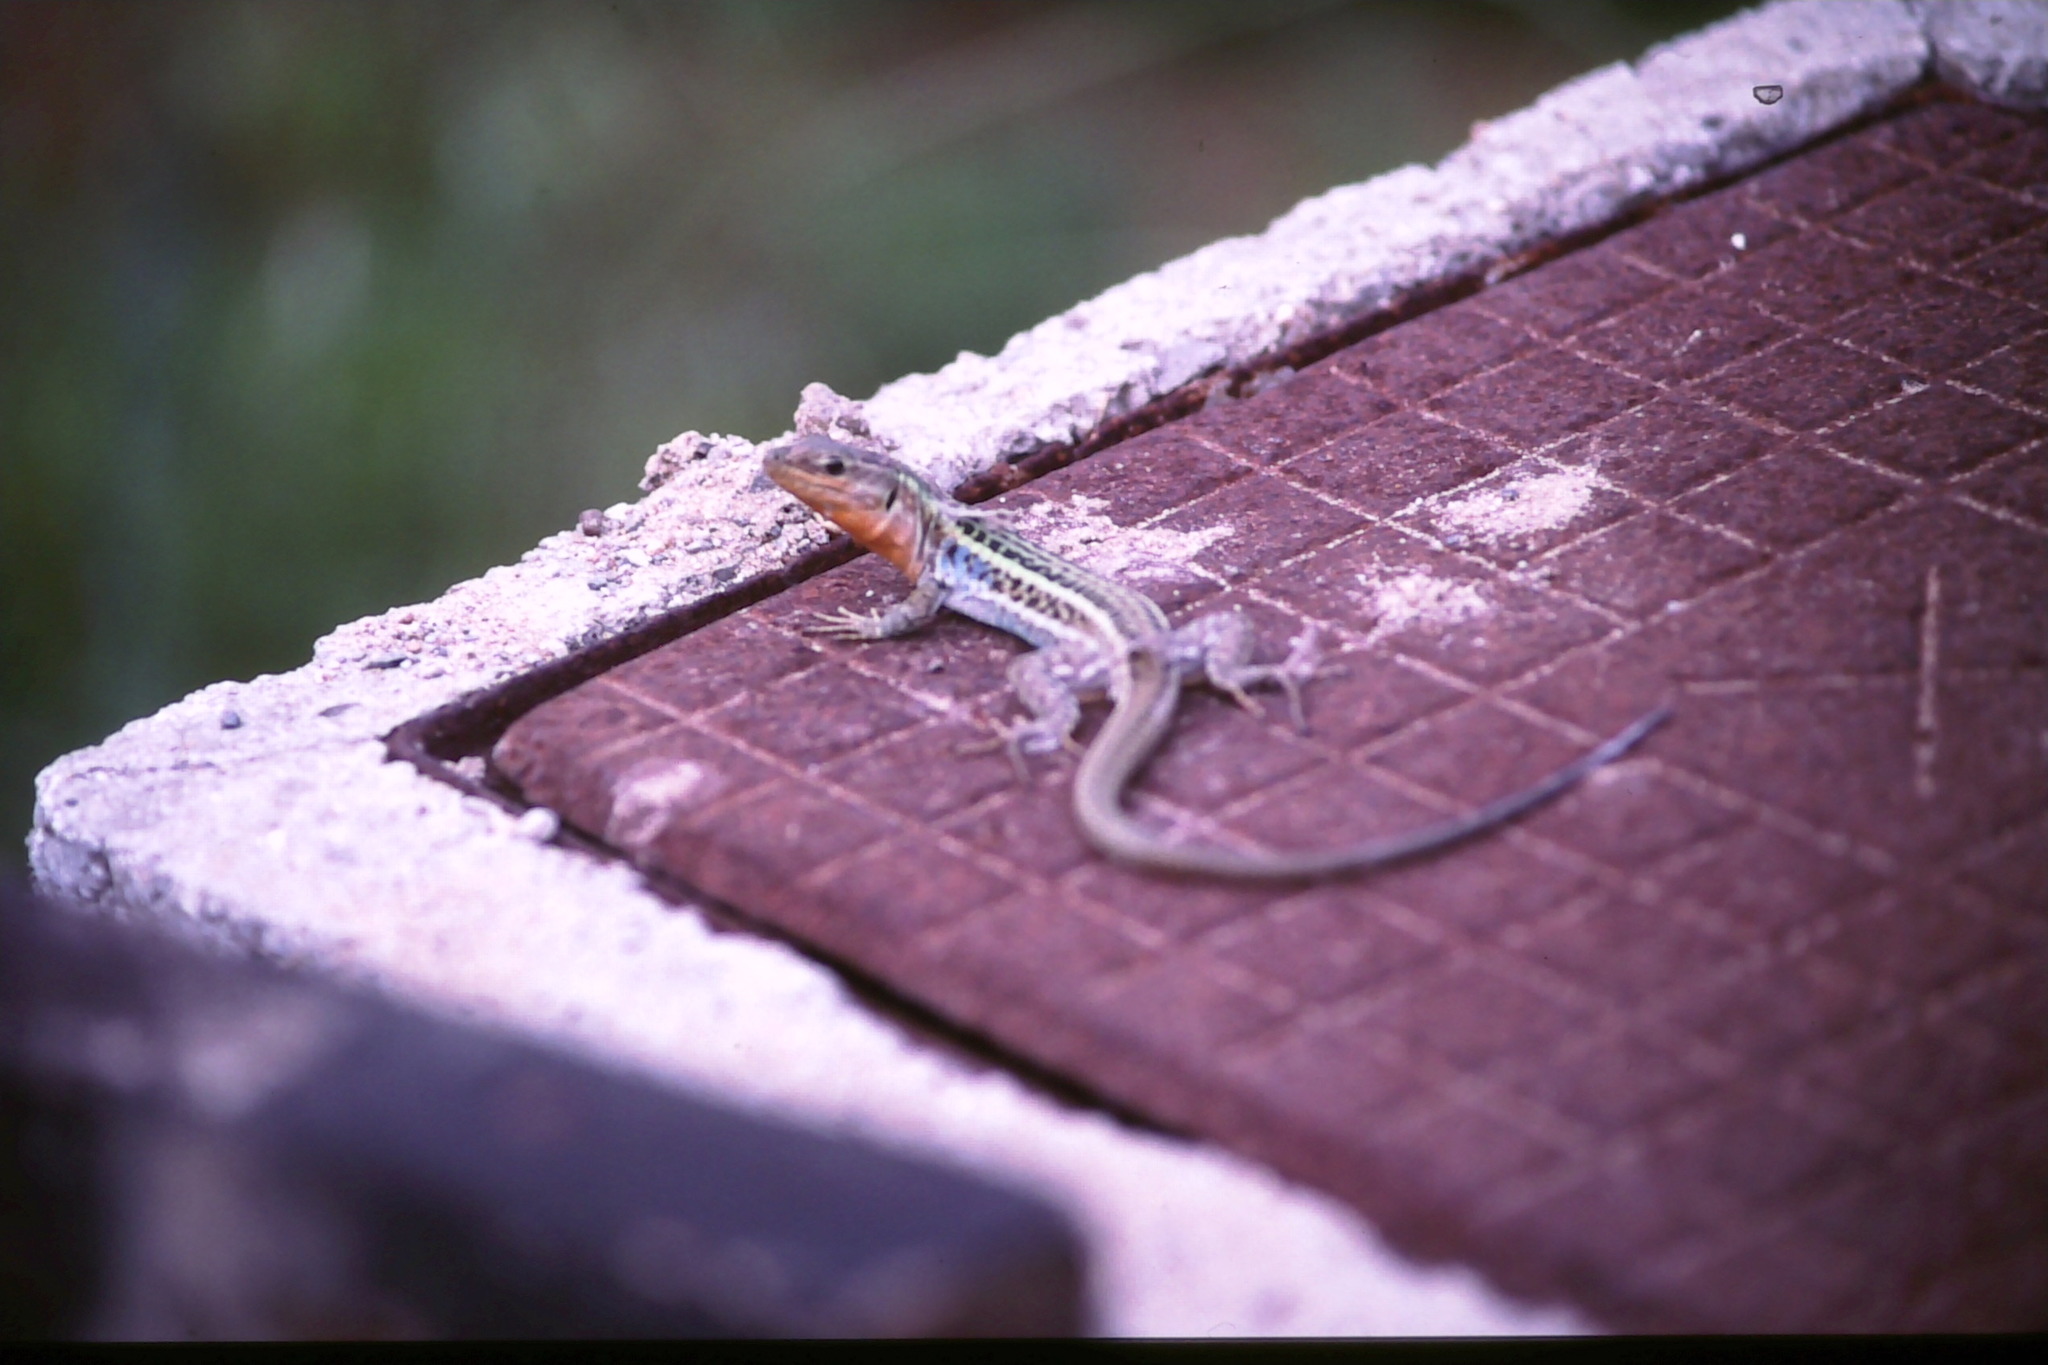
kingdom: Animalia
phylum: Chordata
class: Squamata
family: Lacertidae
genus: Podarcis
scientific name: Podarcis peloponnesiacus
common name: Peloponnese wall lizard
